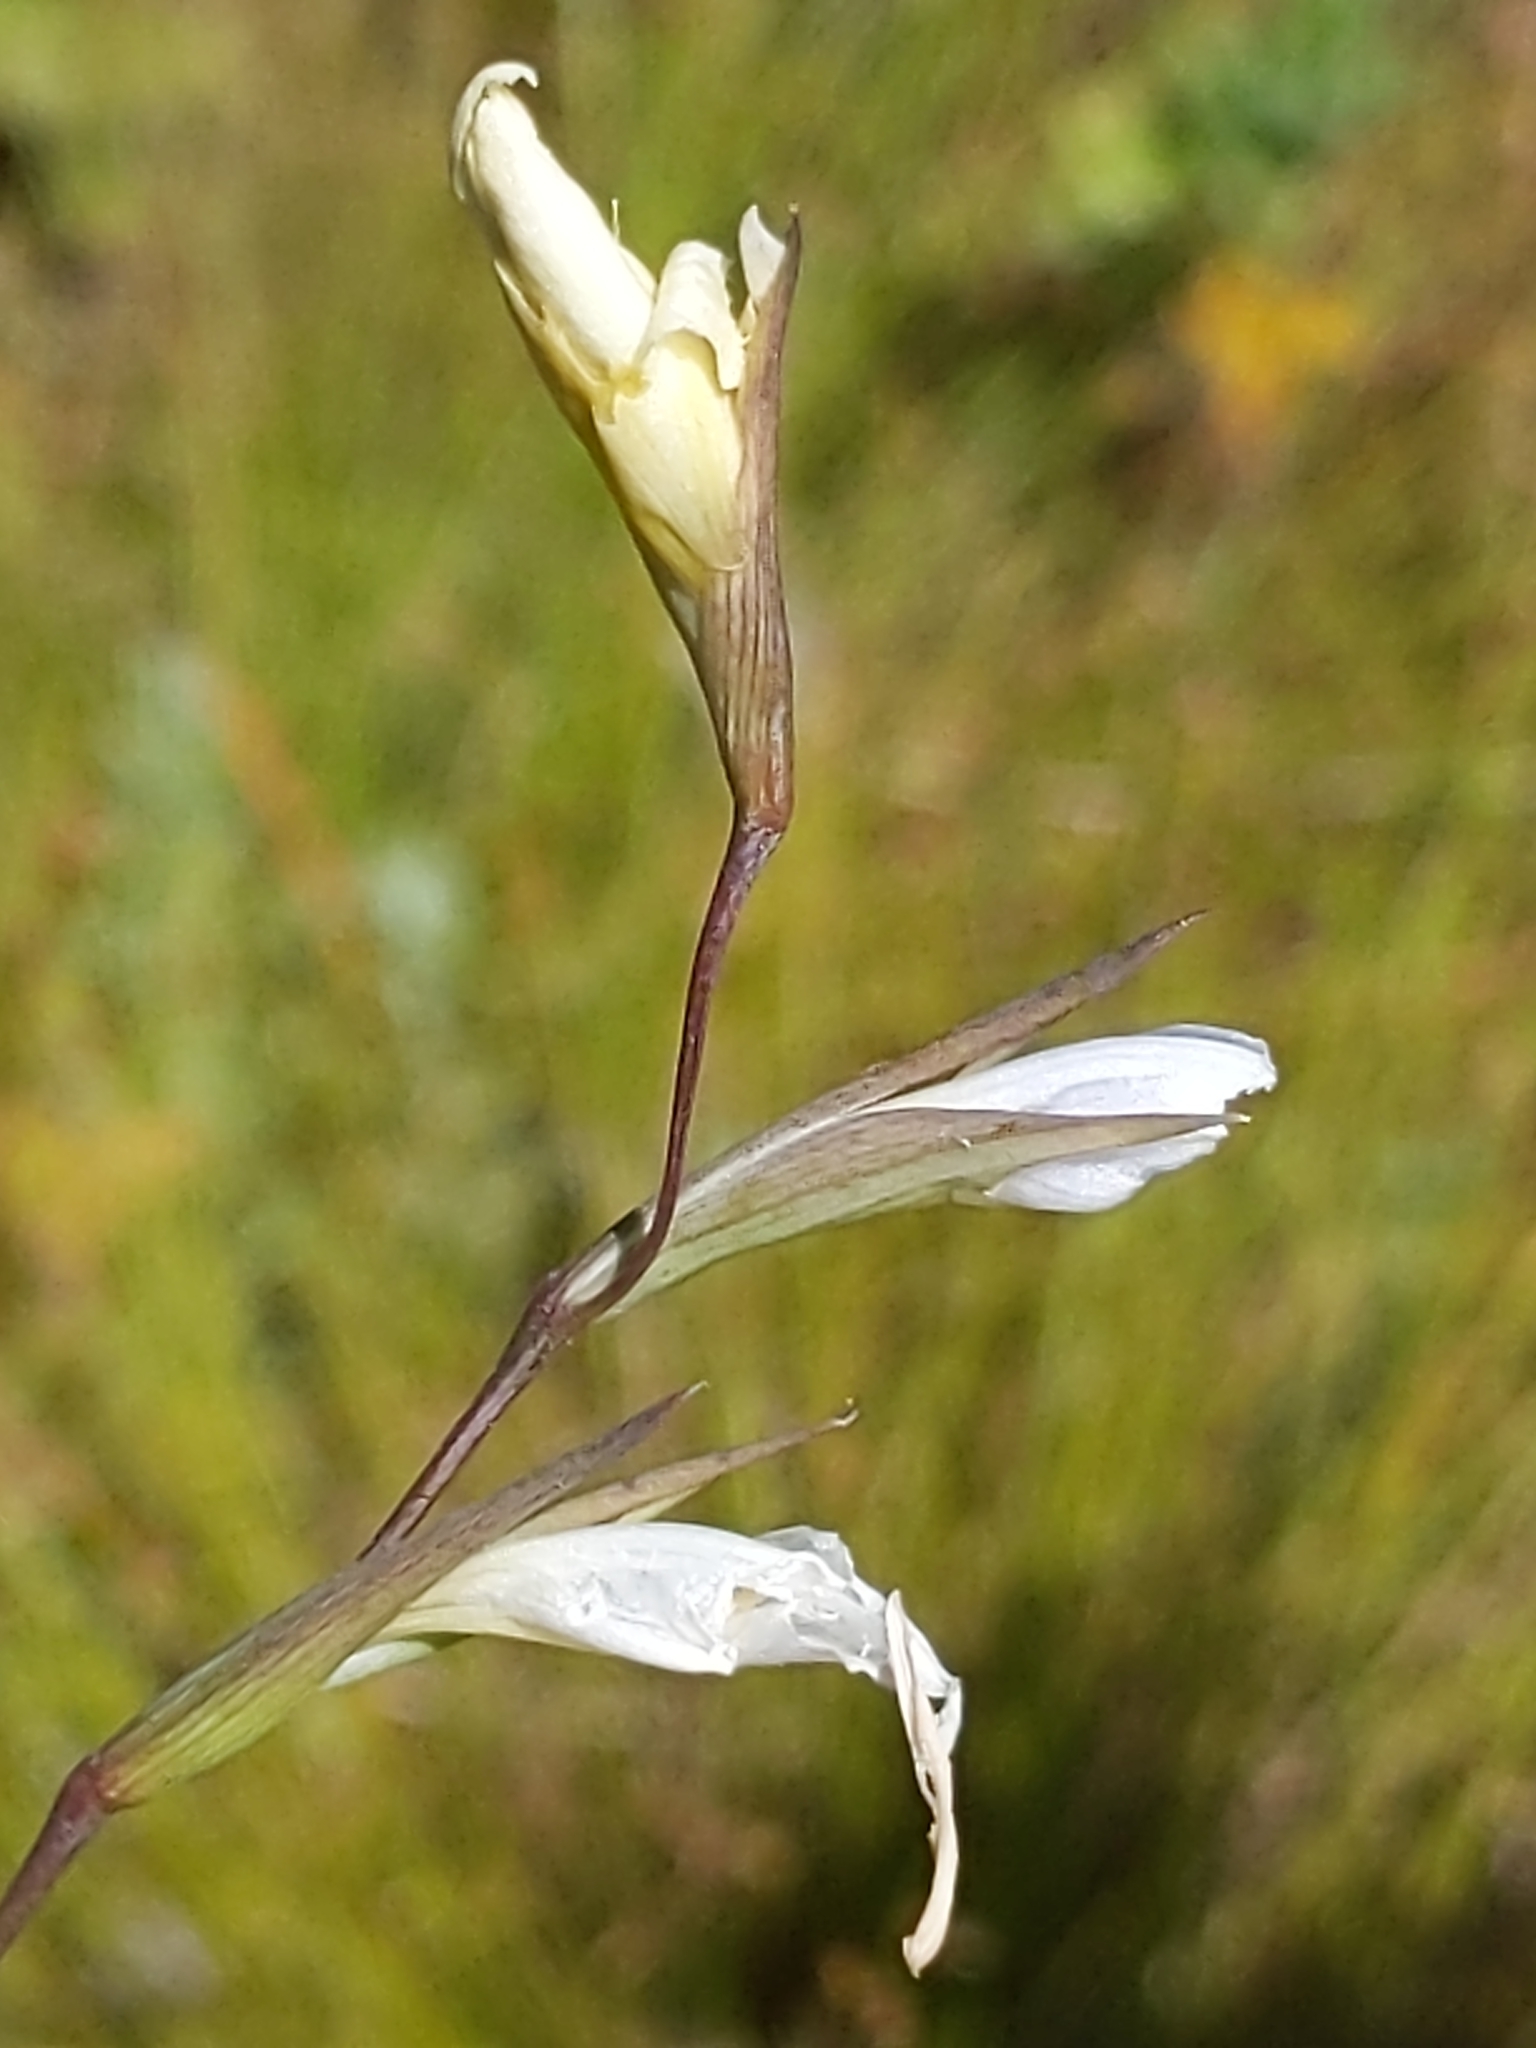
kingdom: Plantae
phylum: Tracheophyta
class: Liliopsida
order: Asparagales
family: Iridaceae
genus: Gladiolus
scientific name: Gladiolus vaginatus
